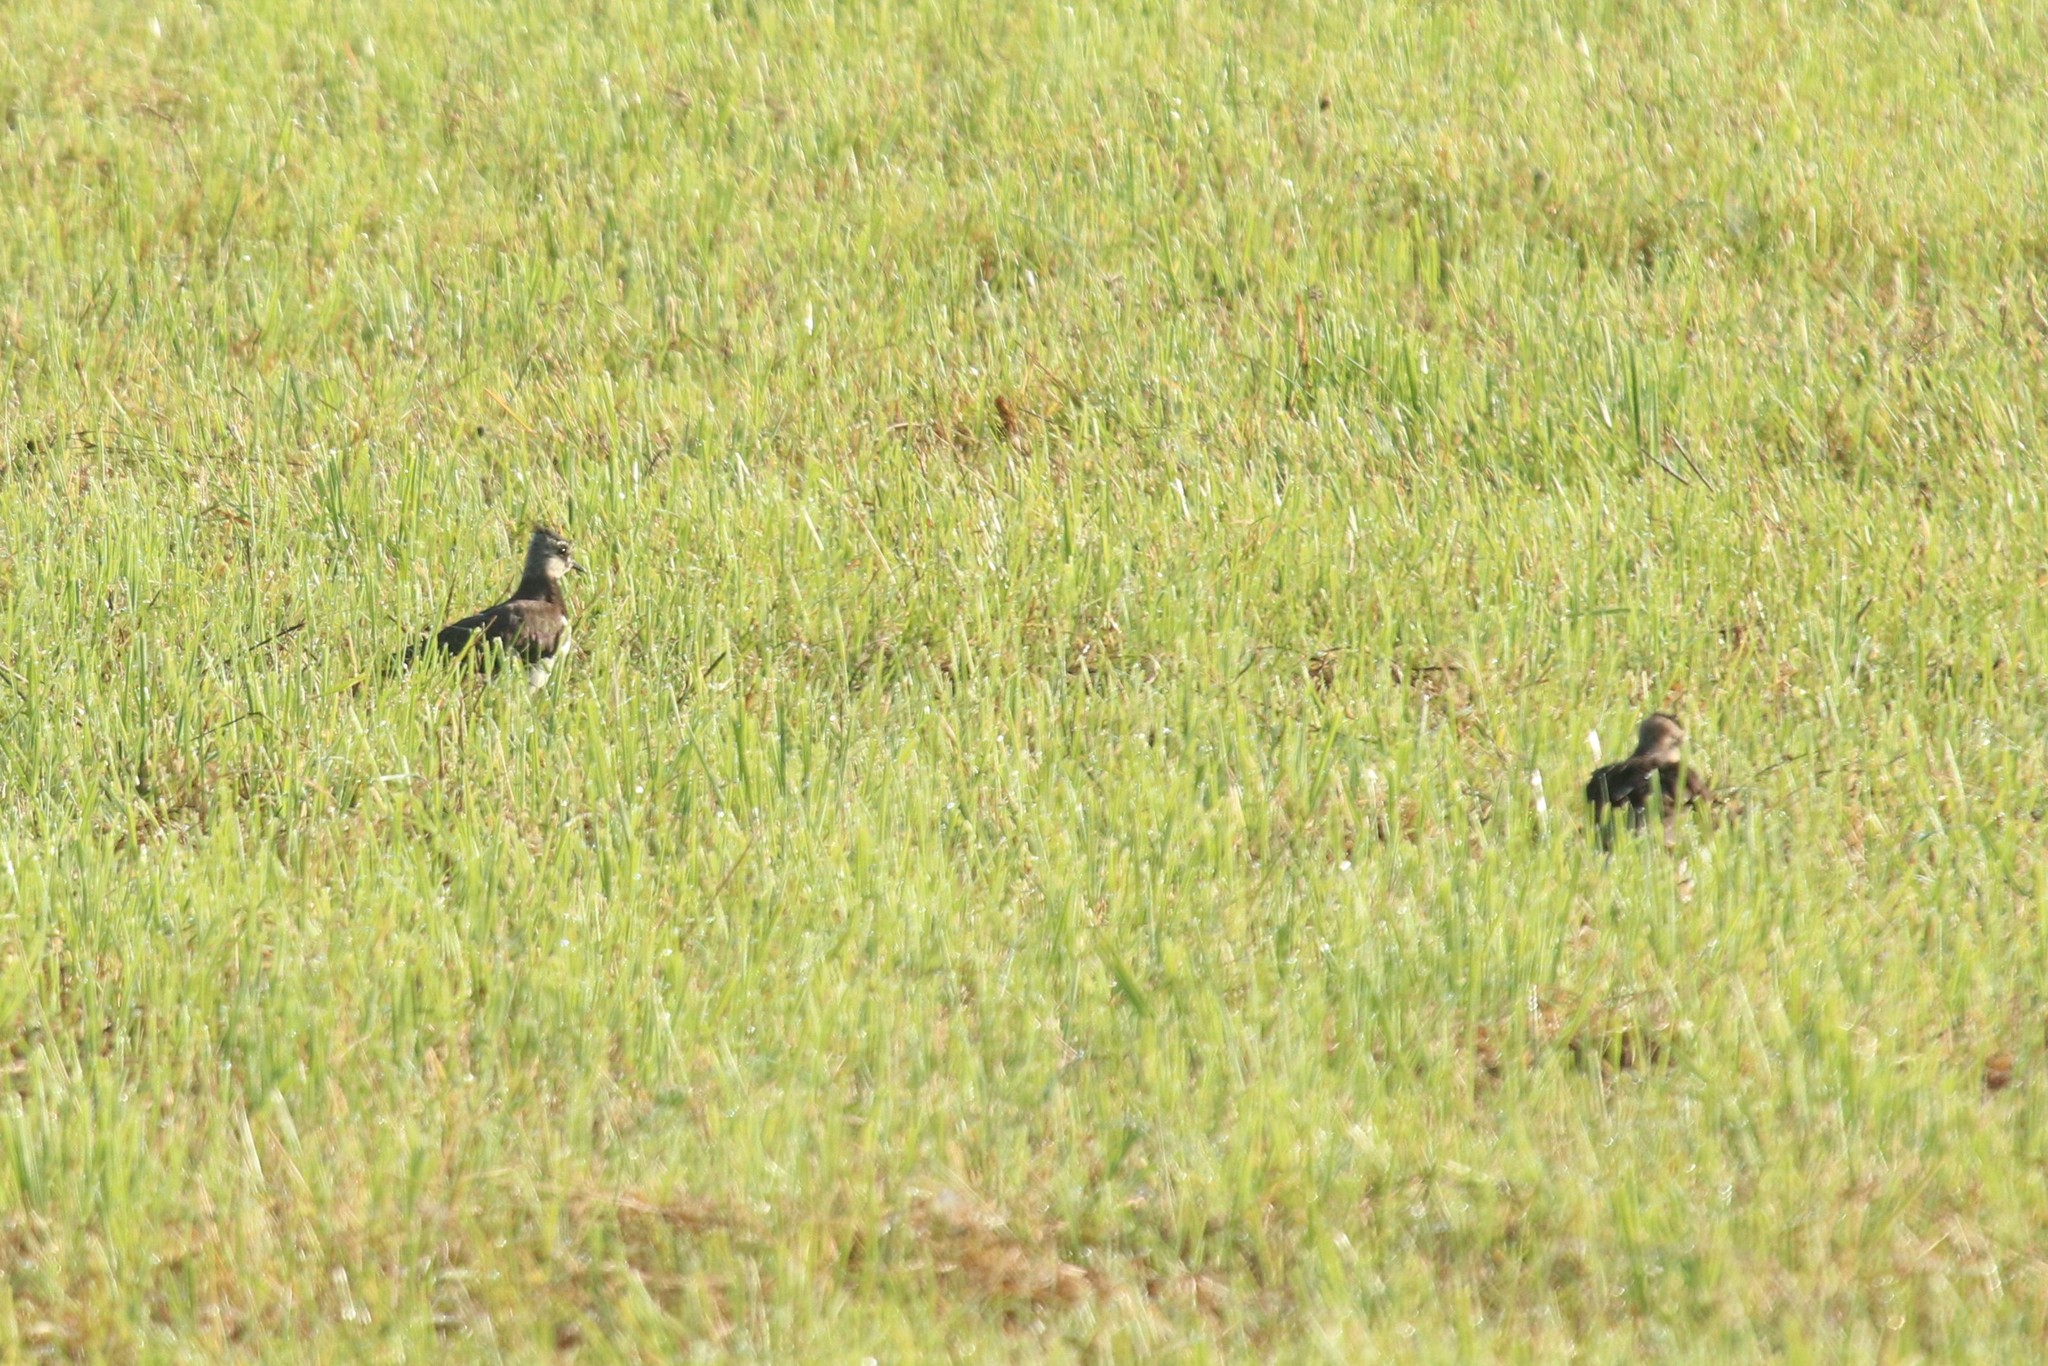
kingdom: Animalia
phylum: Chordata
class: Aves
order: Charadriiformes
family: Charadriidae
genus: Vanellus
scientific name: Vanellus vanellus
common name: Northern lapwing
